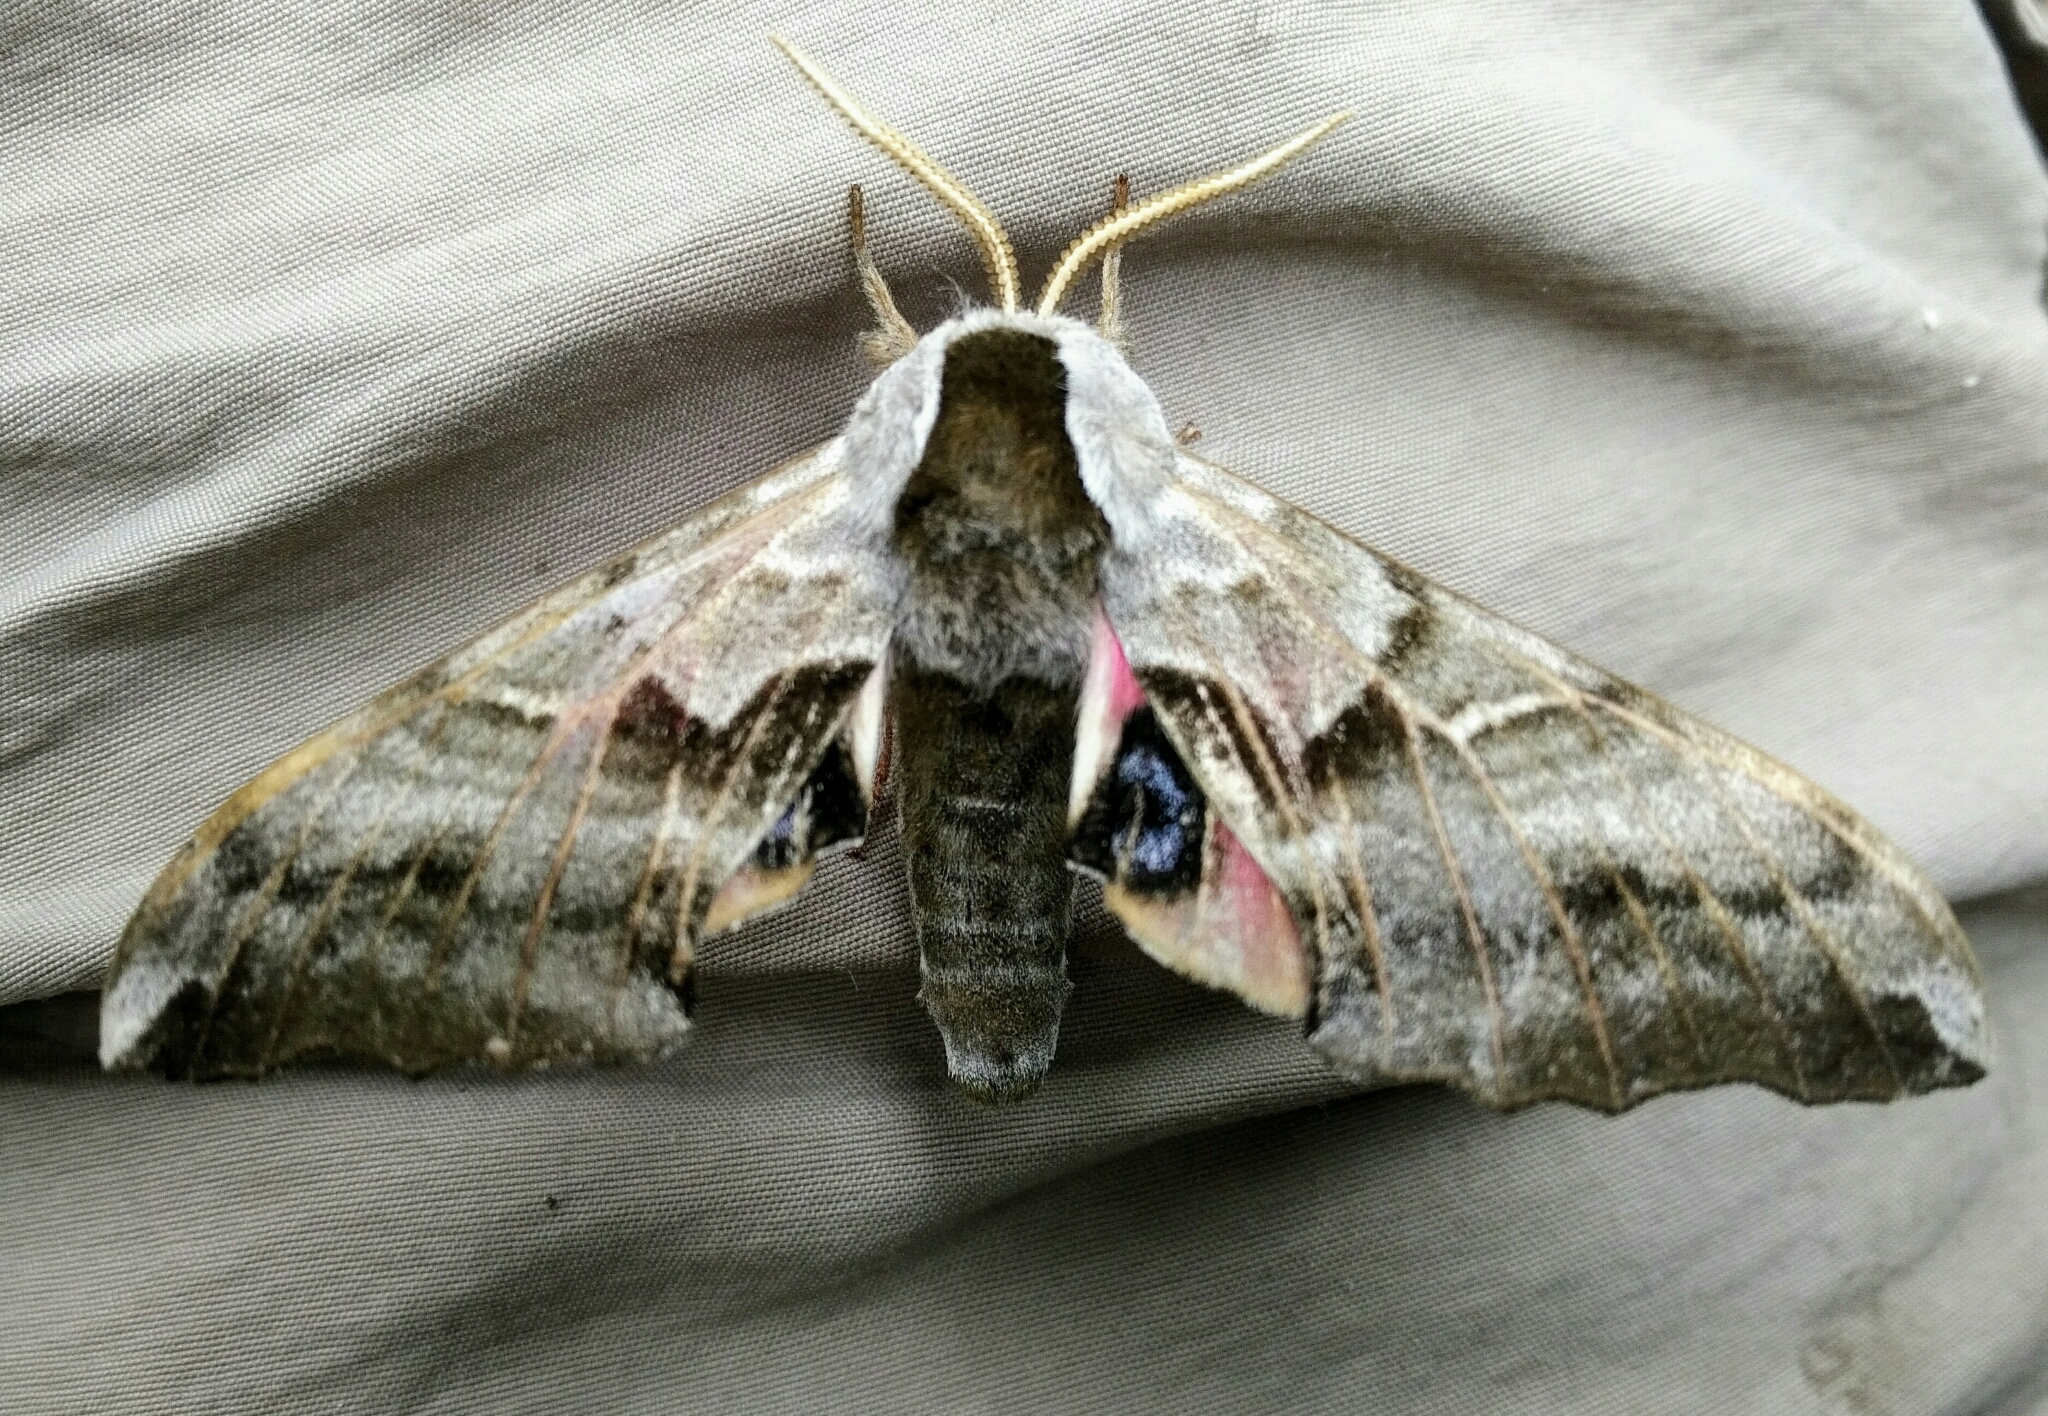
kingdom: Animalia
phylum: Arthropoda
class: Insecta
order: Lepidoptera
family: Sphingidae
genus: Smerinthus
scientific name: Smerinthus cerisyi
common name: Cerisy's sphinx moth
